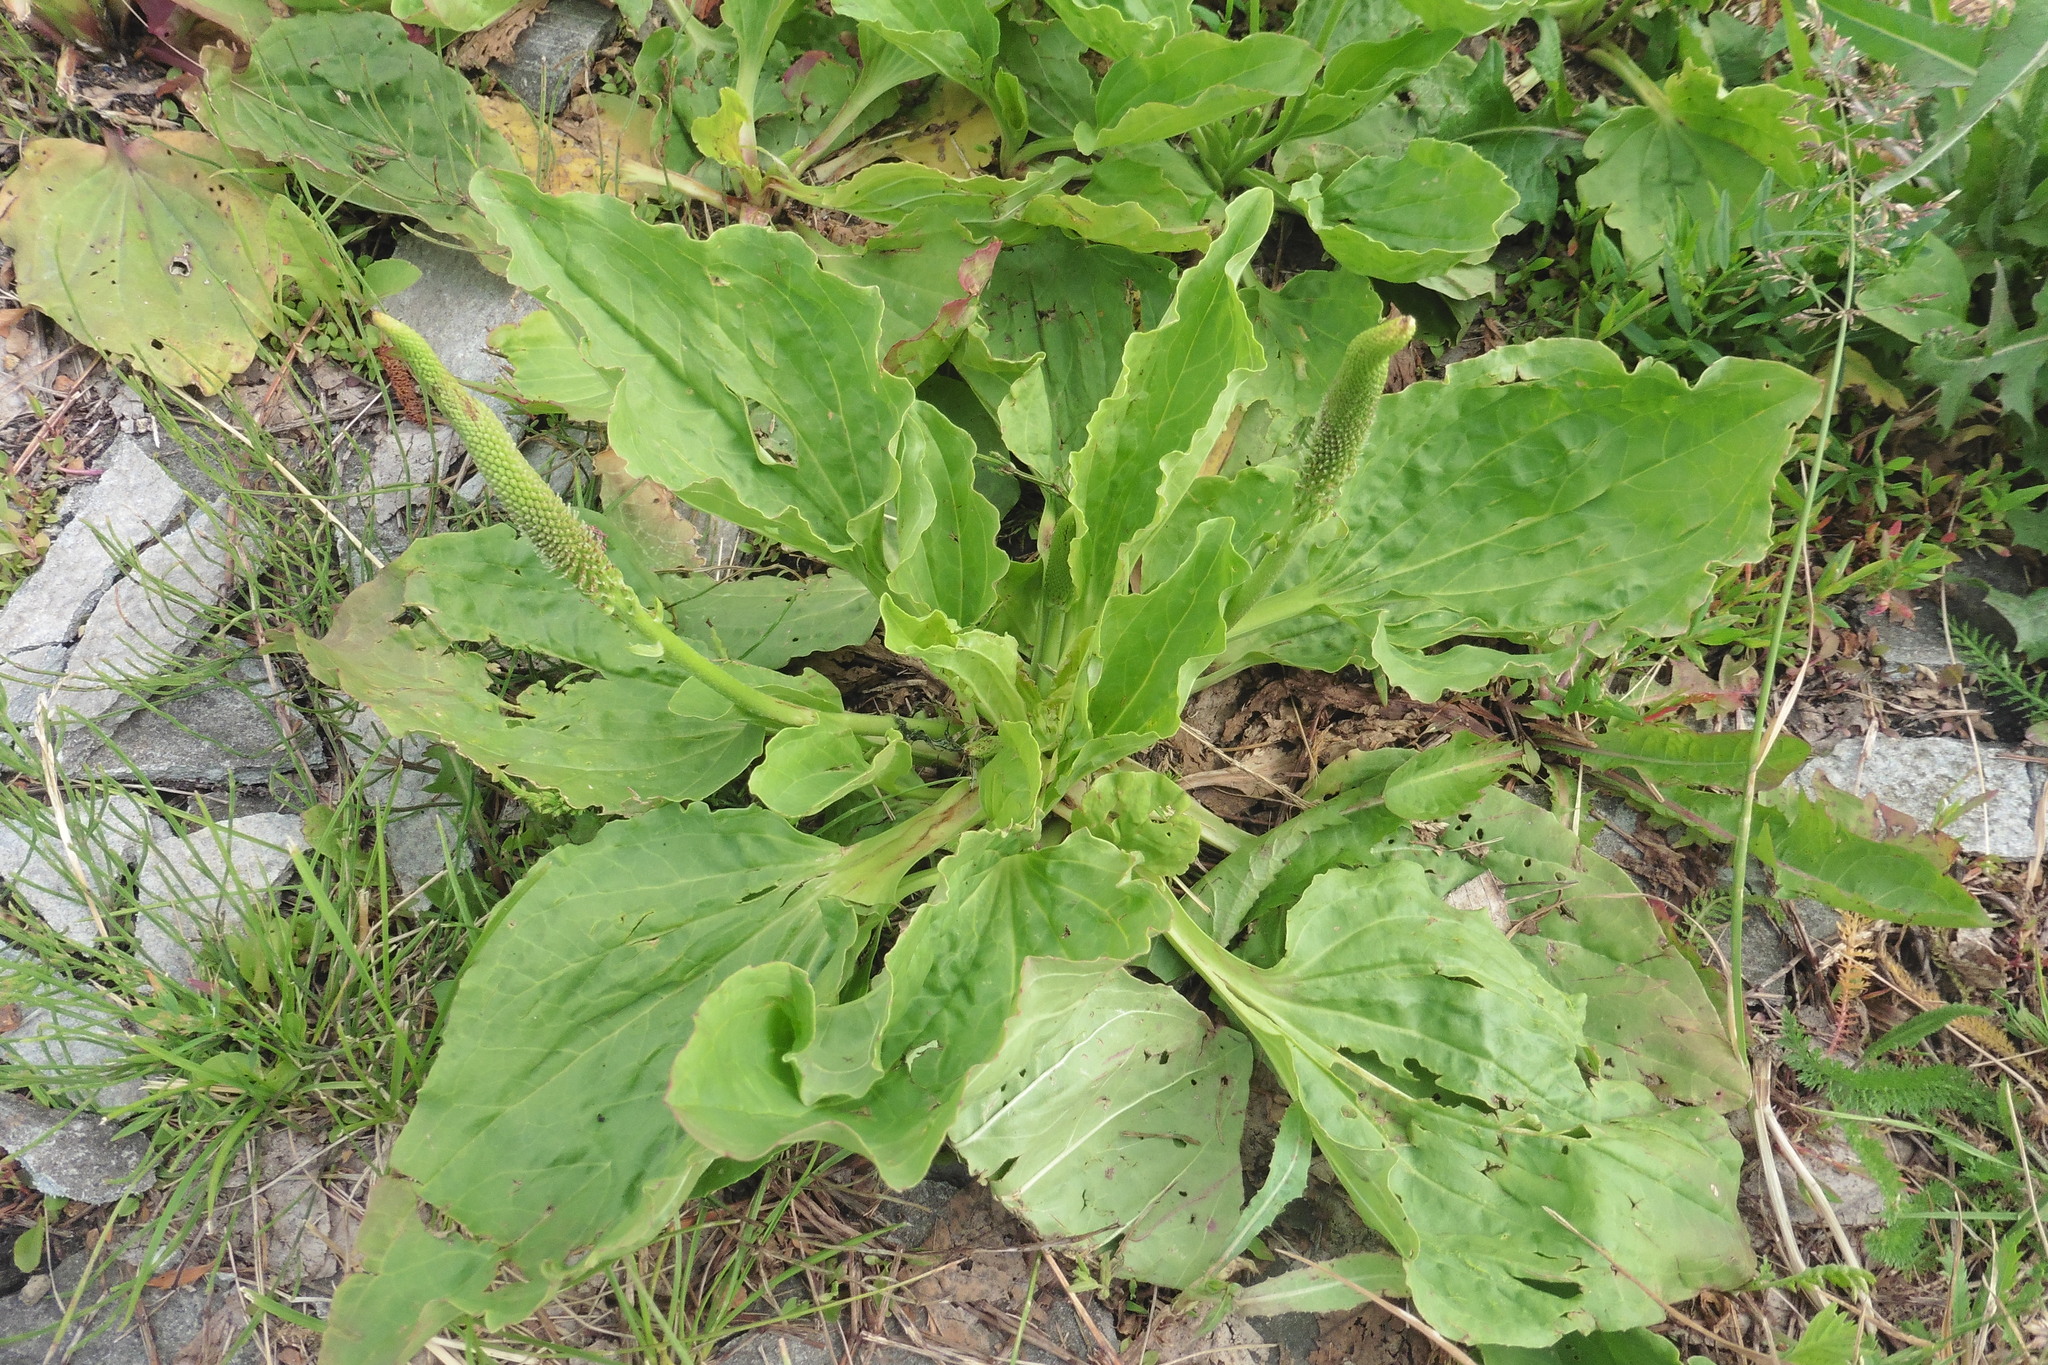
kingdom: Plantae
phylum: Tracheophyta
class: Magnoliopsida
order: Lamiales
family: Plantaginaceae
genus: Plantago
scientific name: Plantago major
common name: Common plantain
